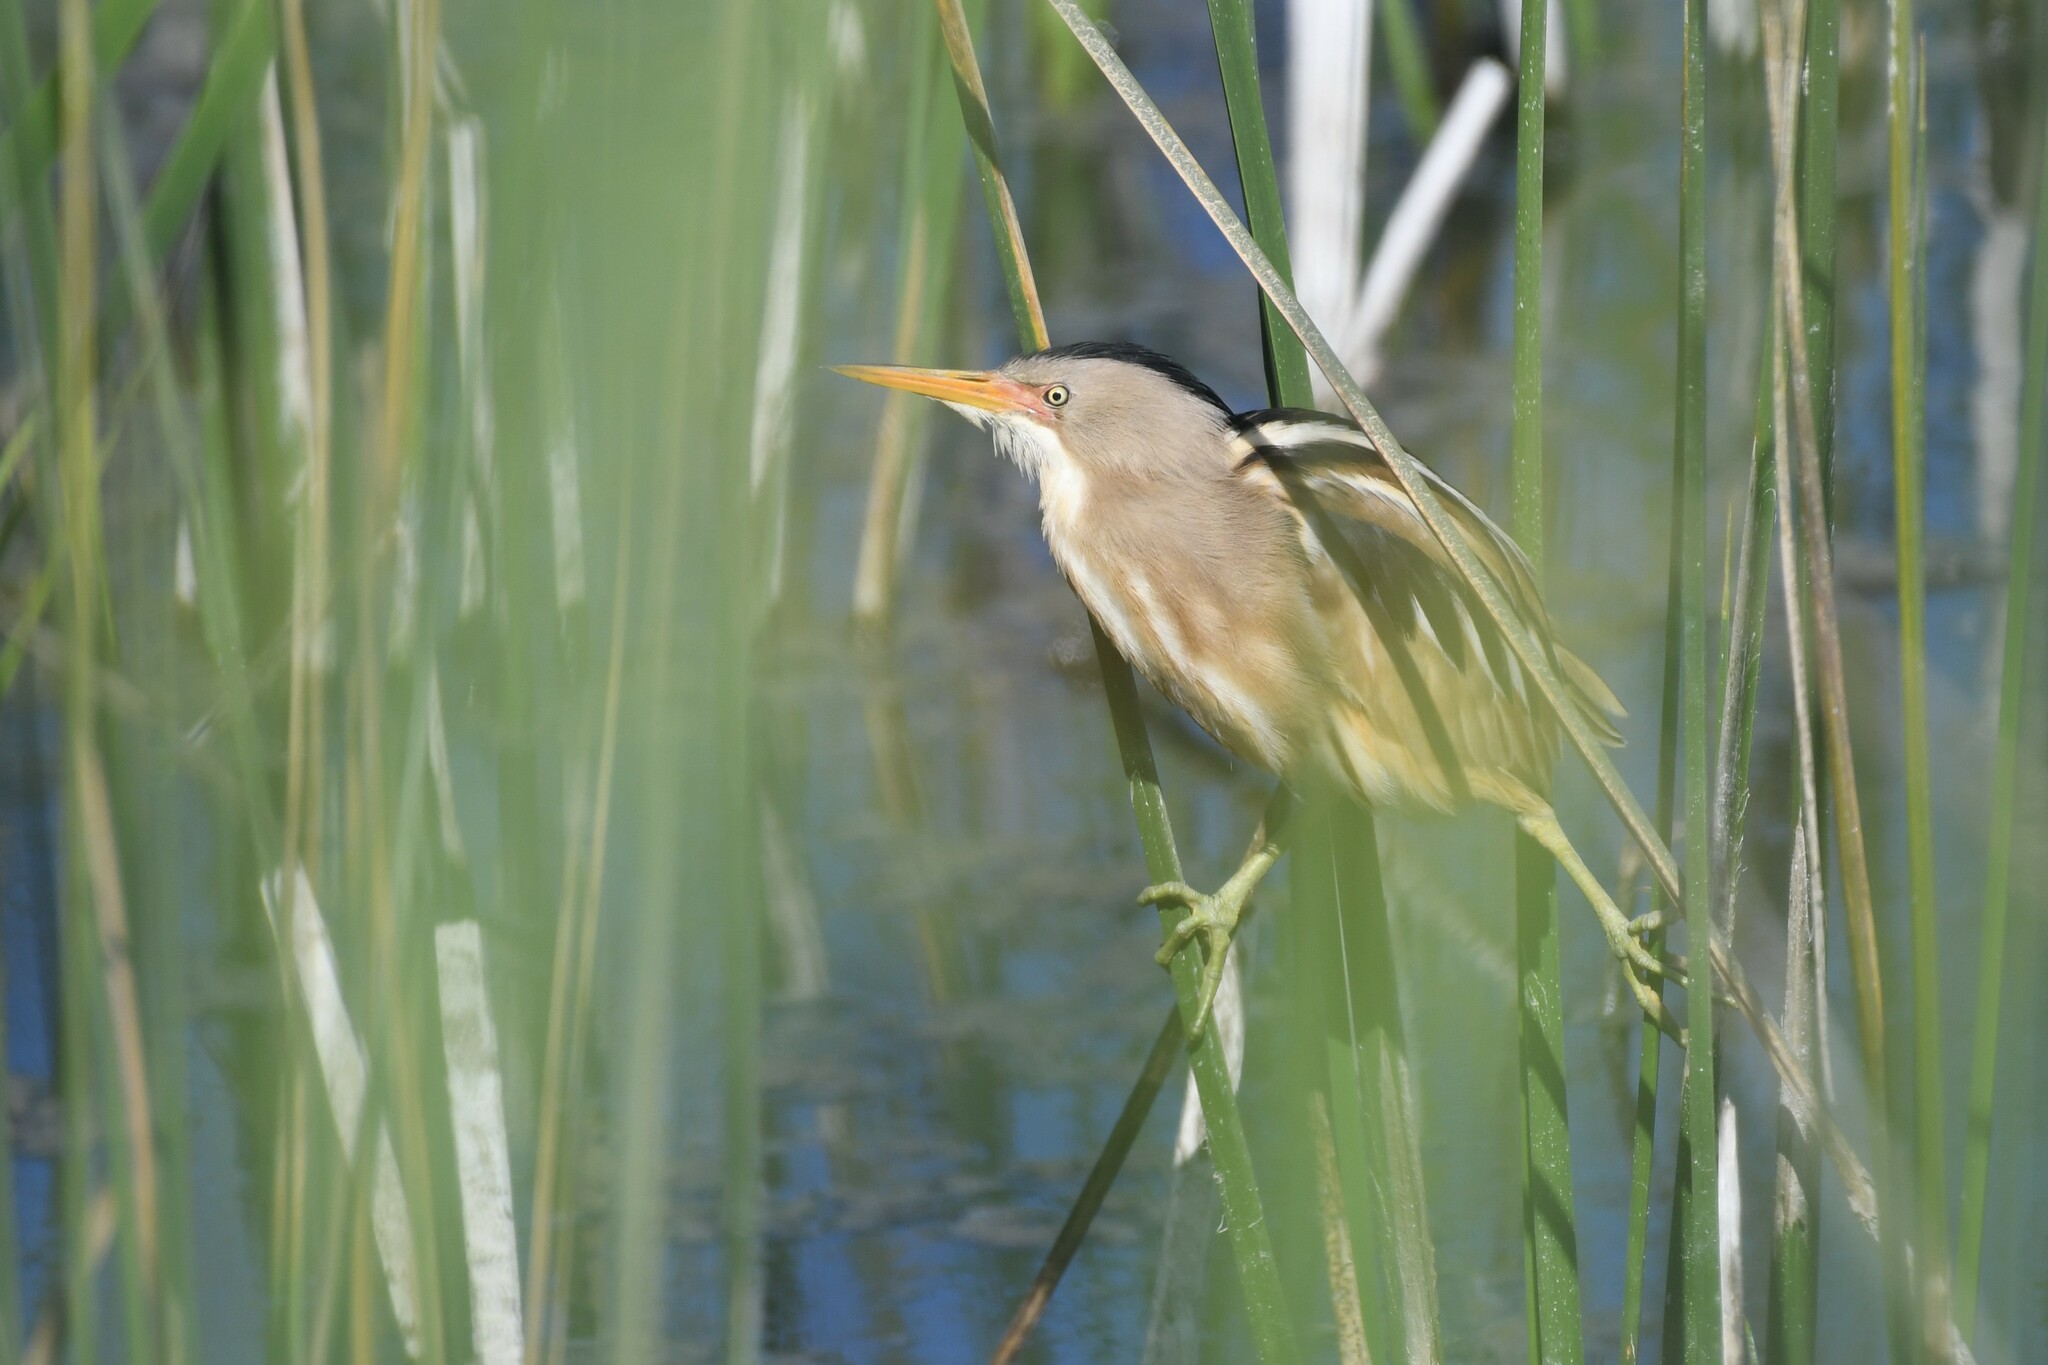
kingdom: Animalia
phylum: Chordata
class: Aves
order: Pelecaniformes
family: Ardeidae
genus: Ixobrychus
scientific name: Ixobrychus involucris
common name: Stripe-backed bittern
